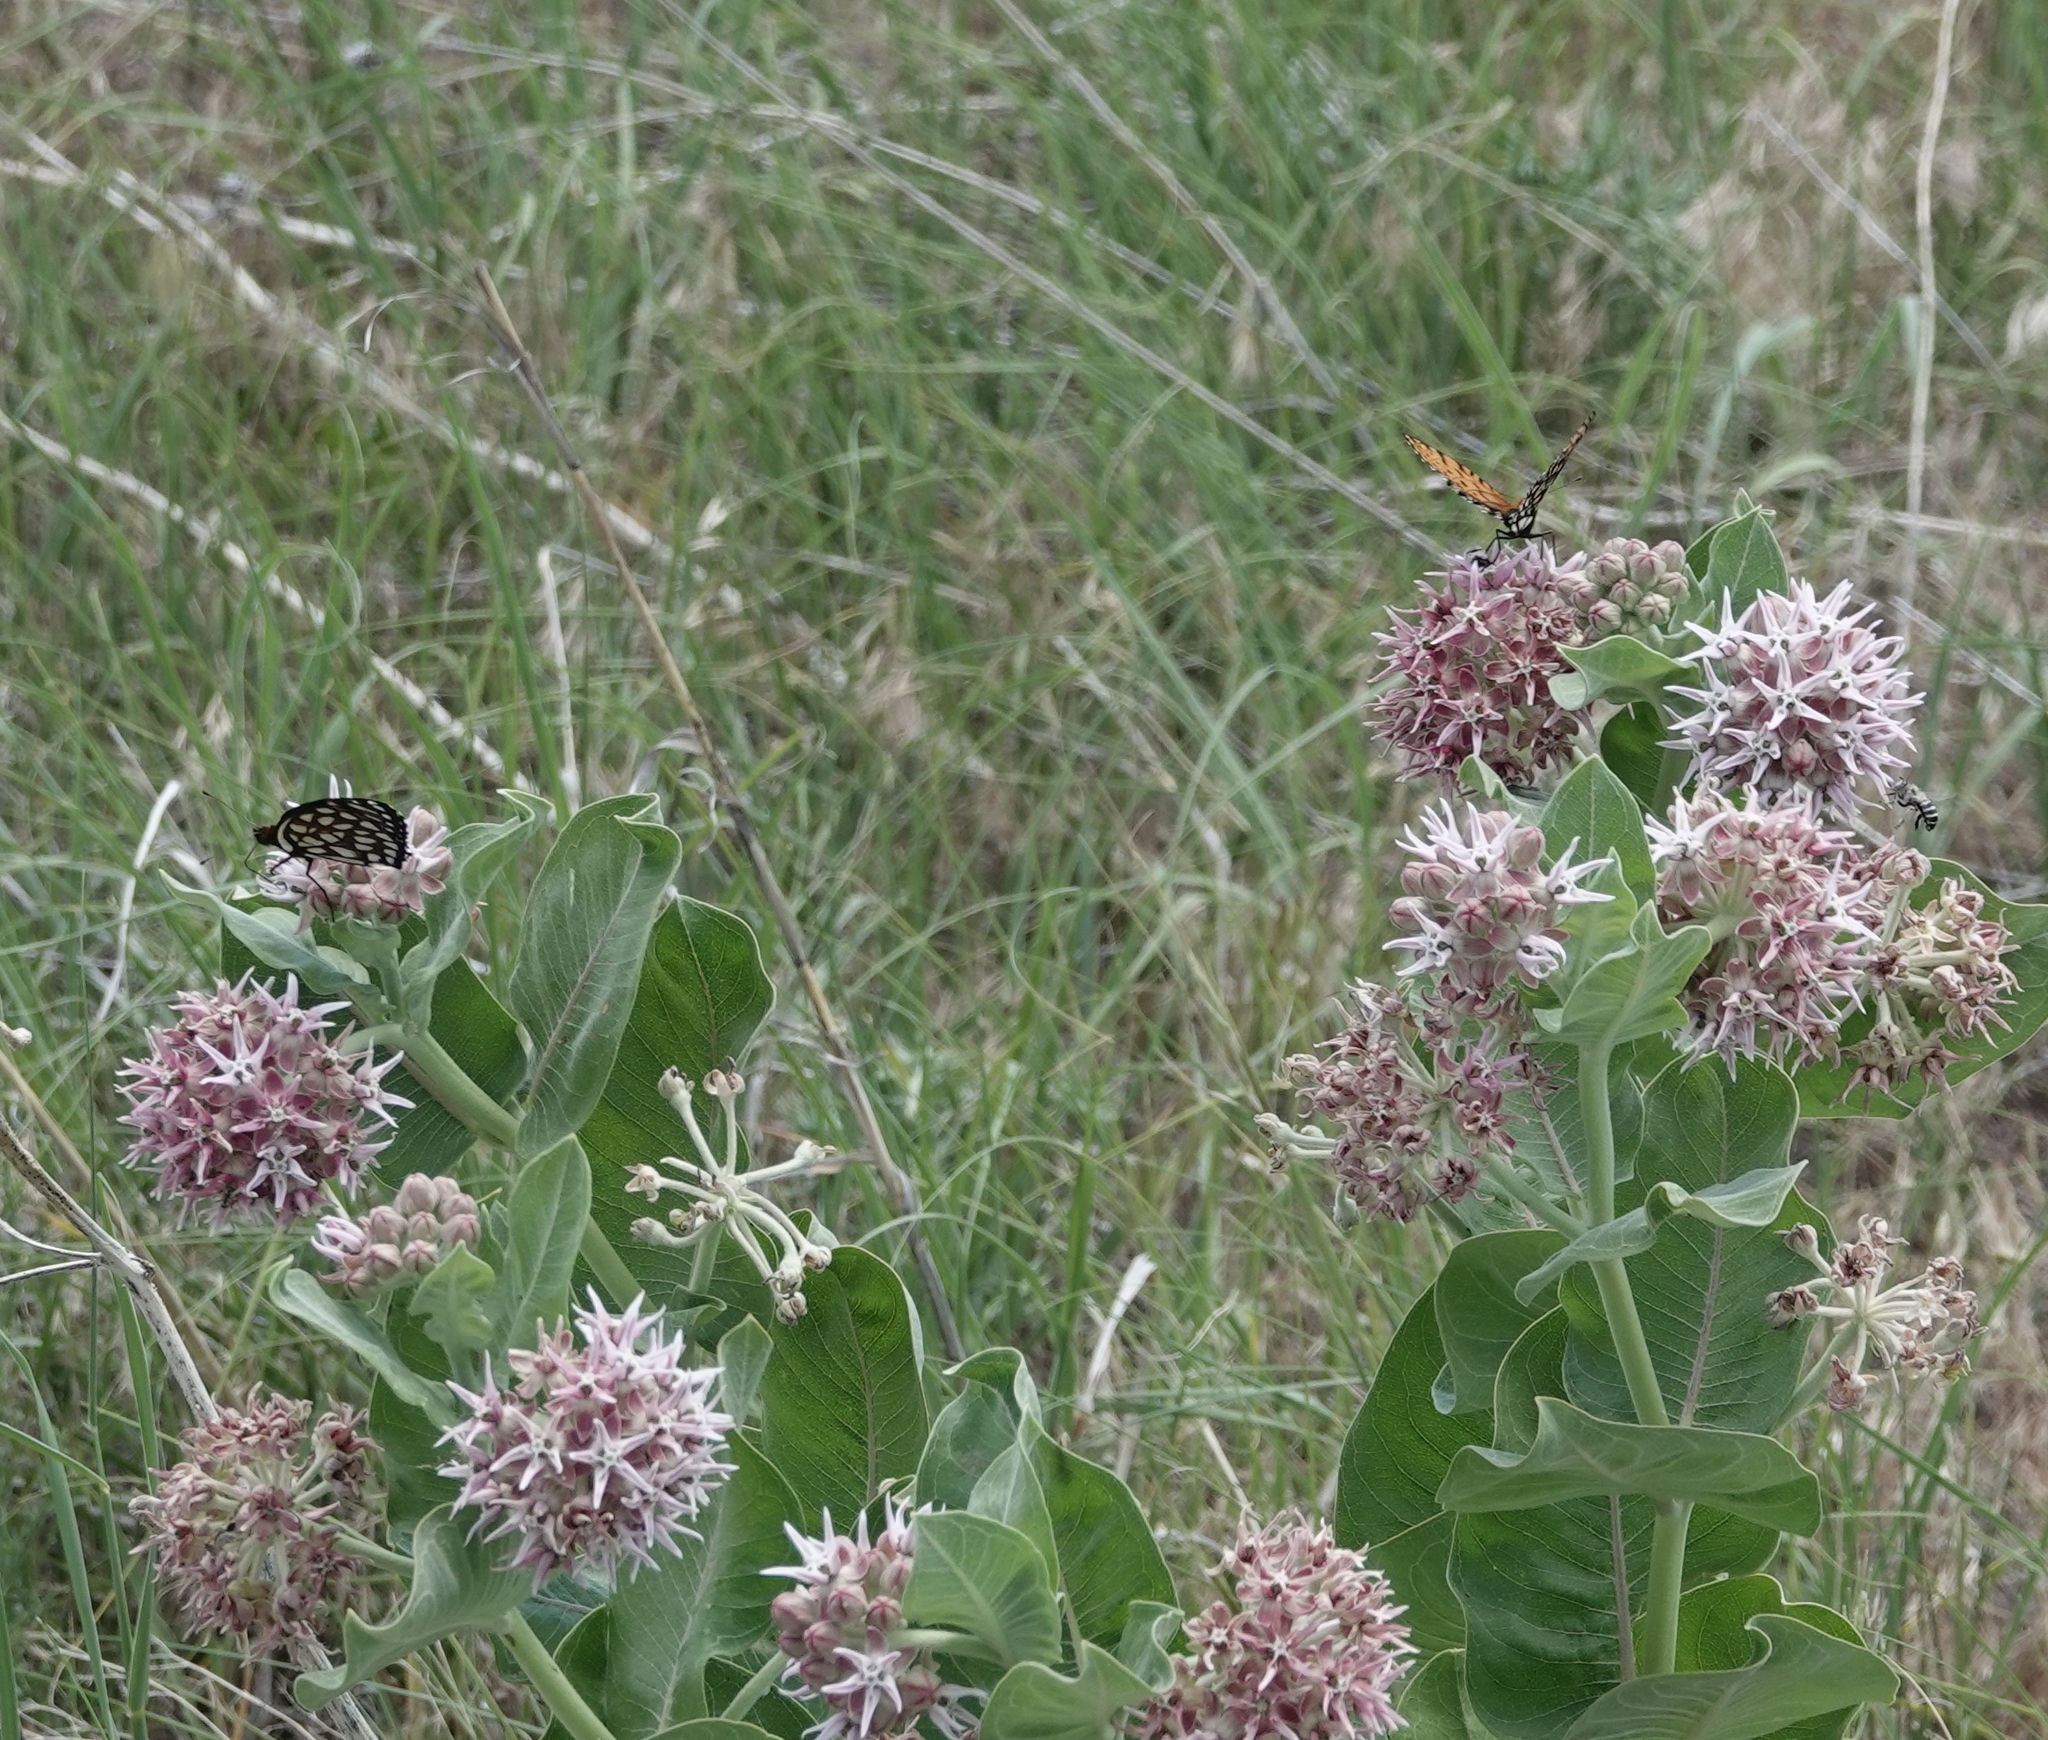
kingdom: Animalia
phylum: Arthropoda
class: Insecta
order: Lepidoptera
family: Nymphalidae
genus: Speyeria
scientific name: Speyeria idalia
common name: Regal fritillary
